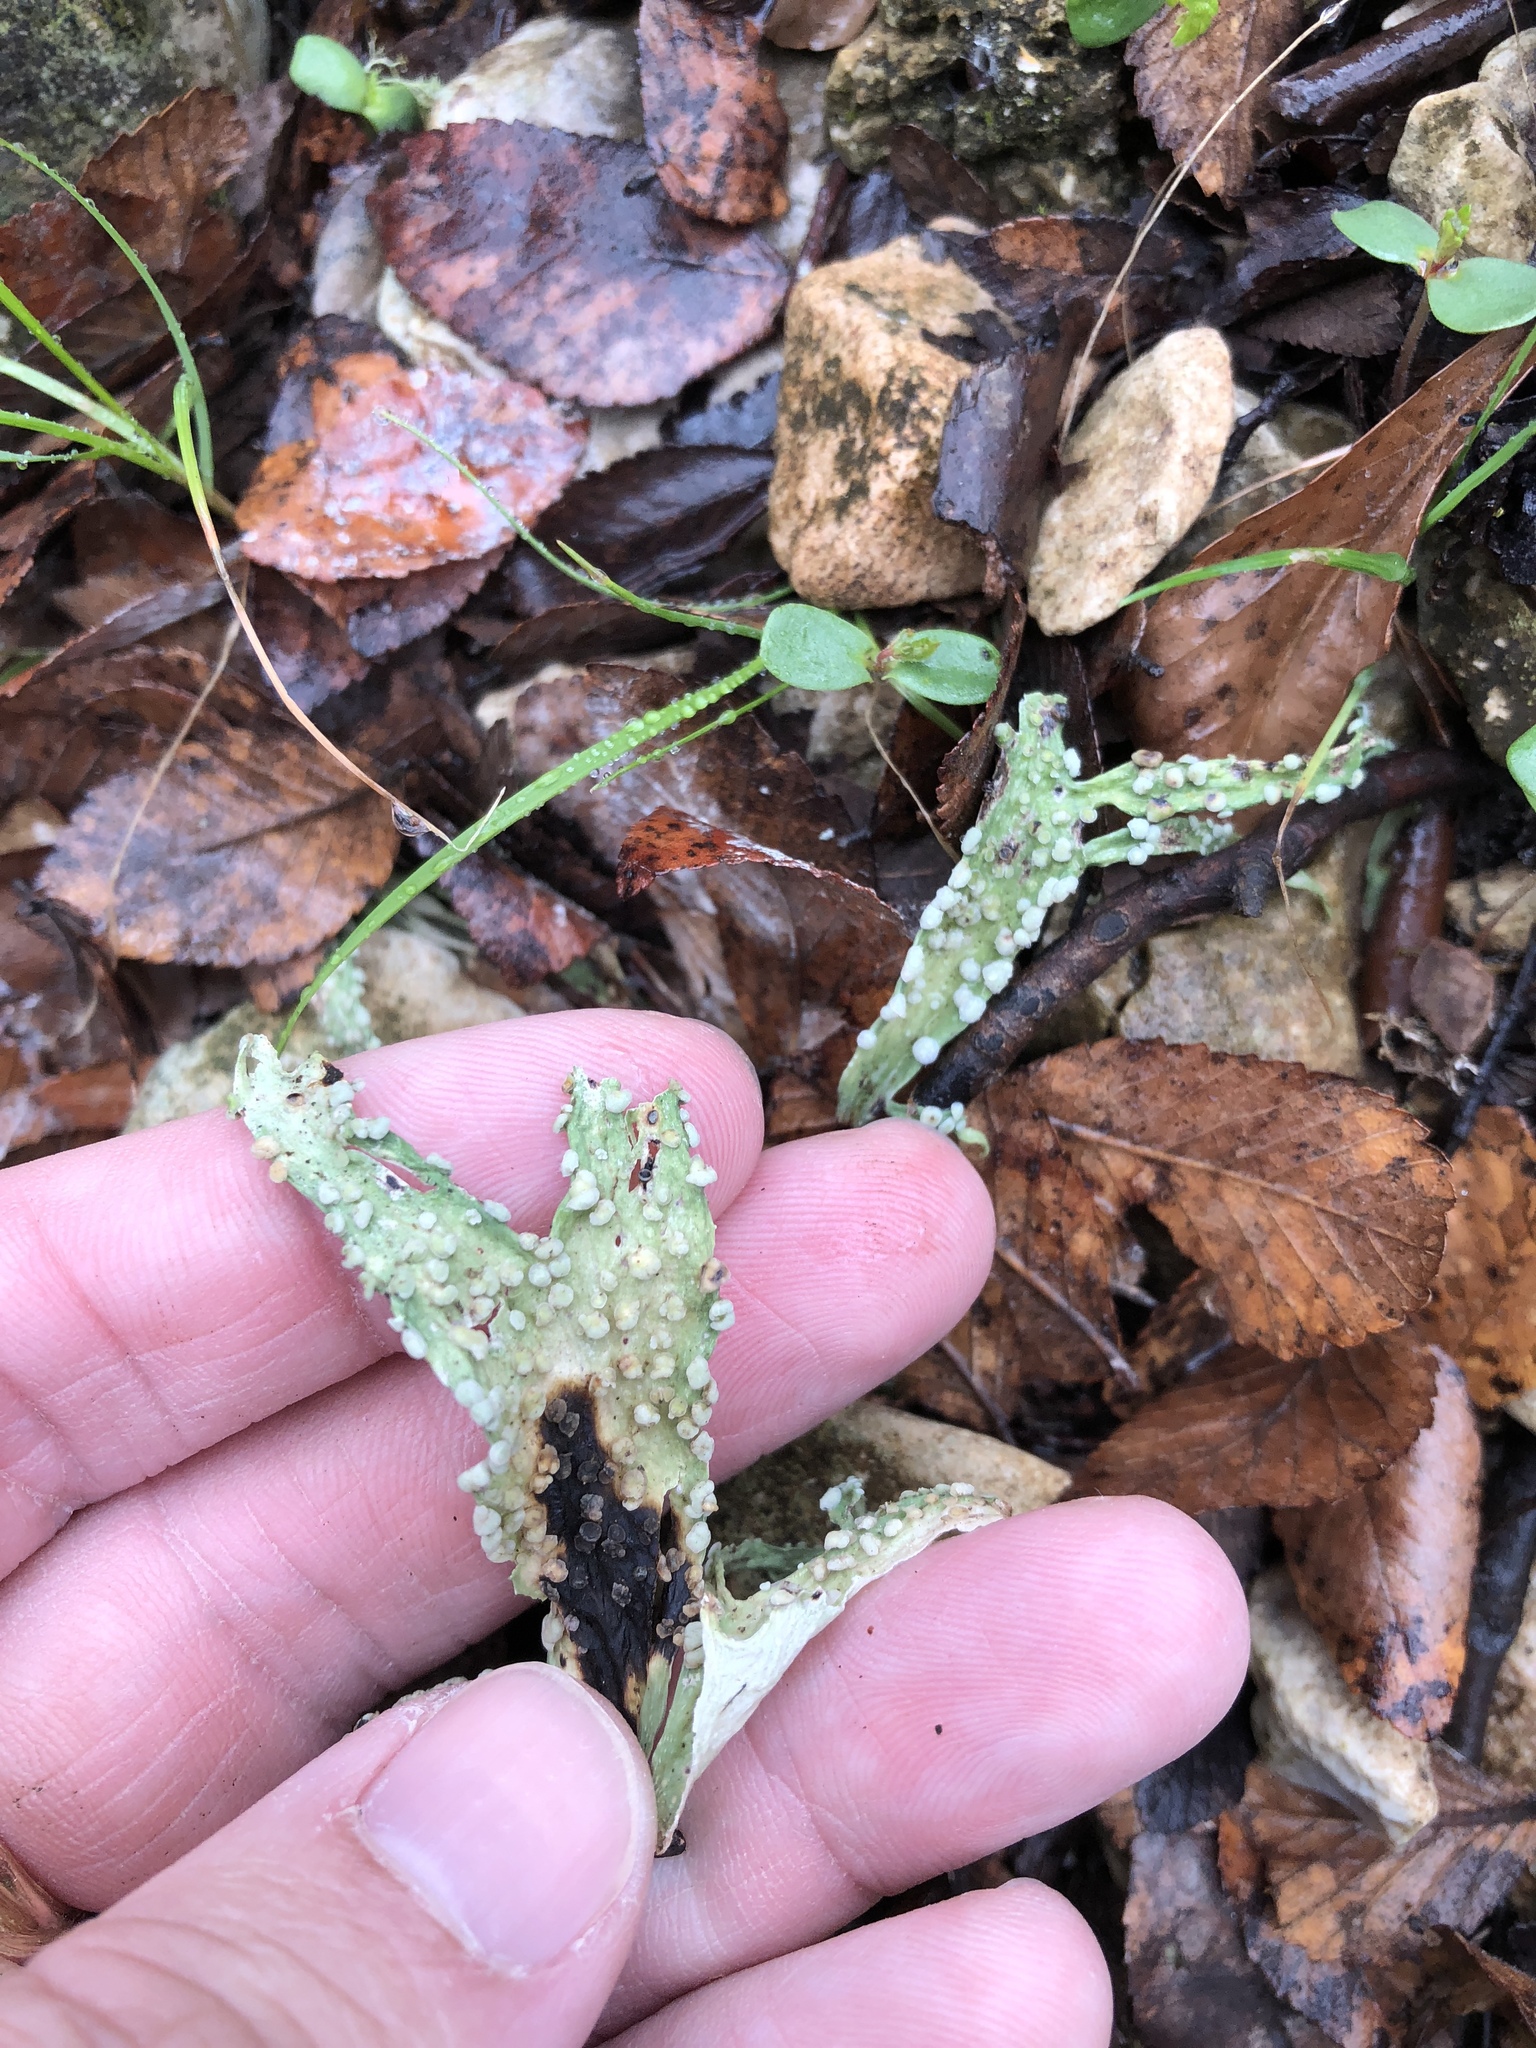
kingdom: Fungi
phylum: Ascomycota
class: Lecanoromycetes
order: Lecanorales
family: Ramalinaceae
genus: Ramalina
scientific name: Ramalina celastri
